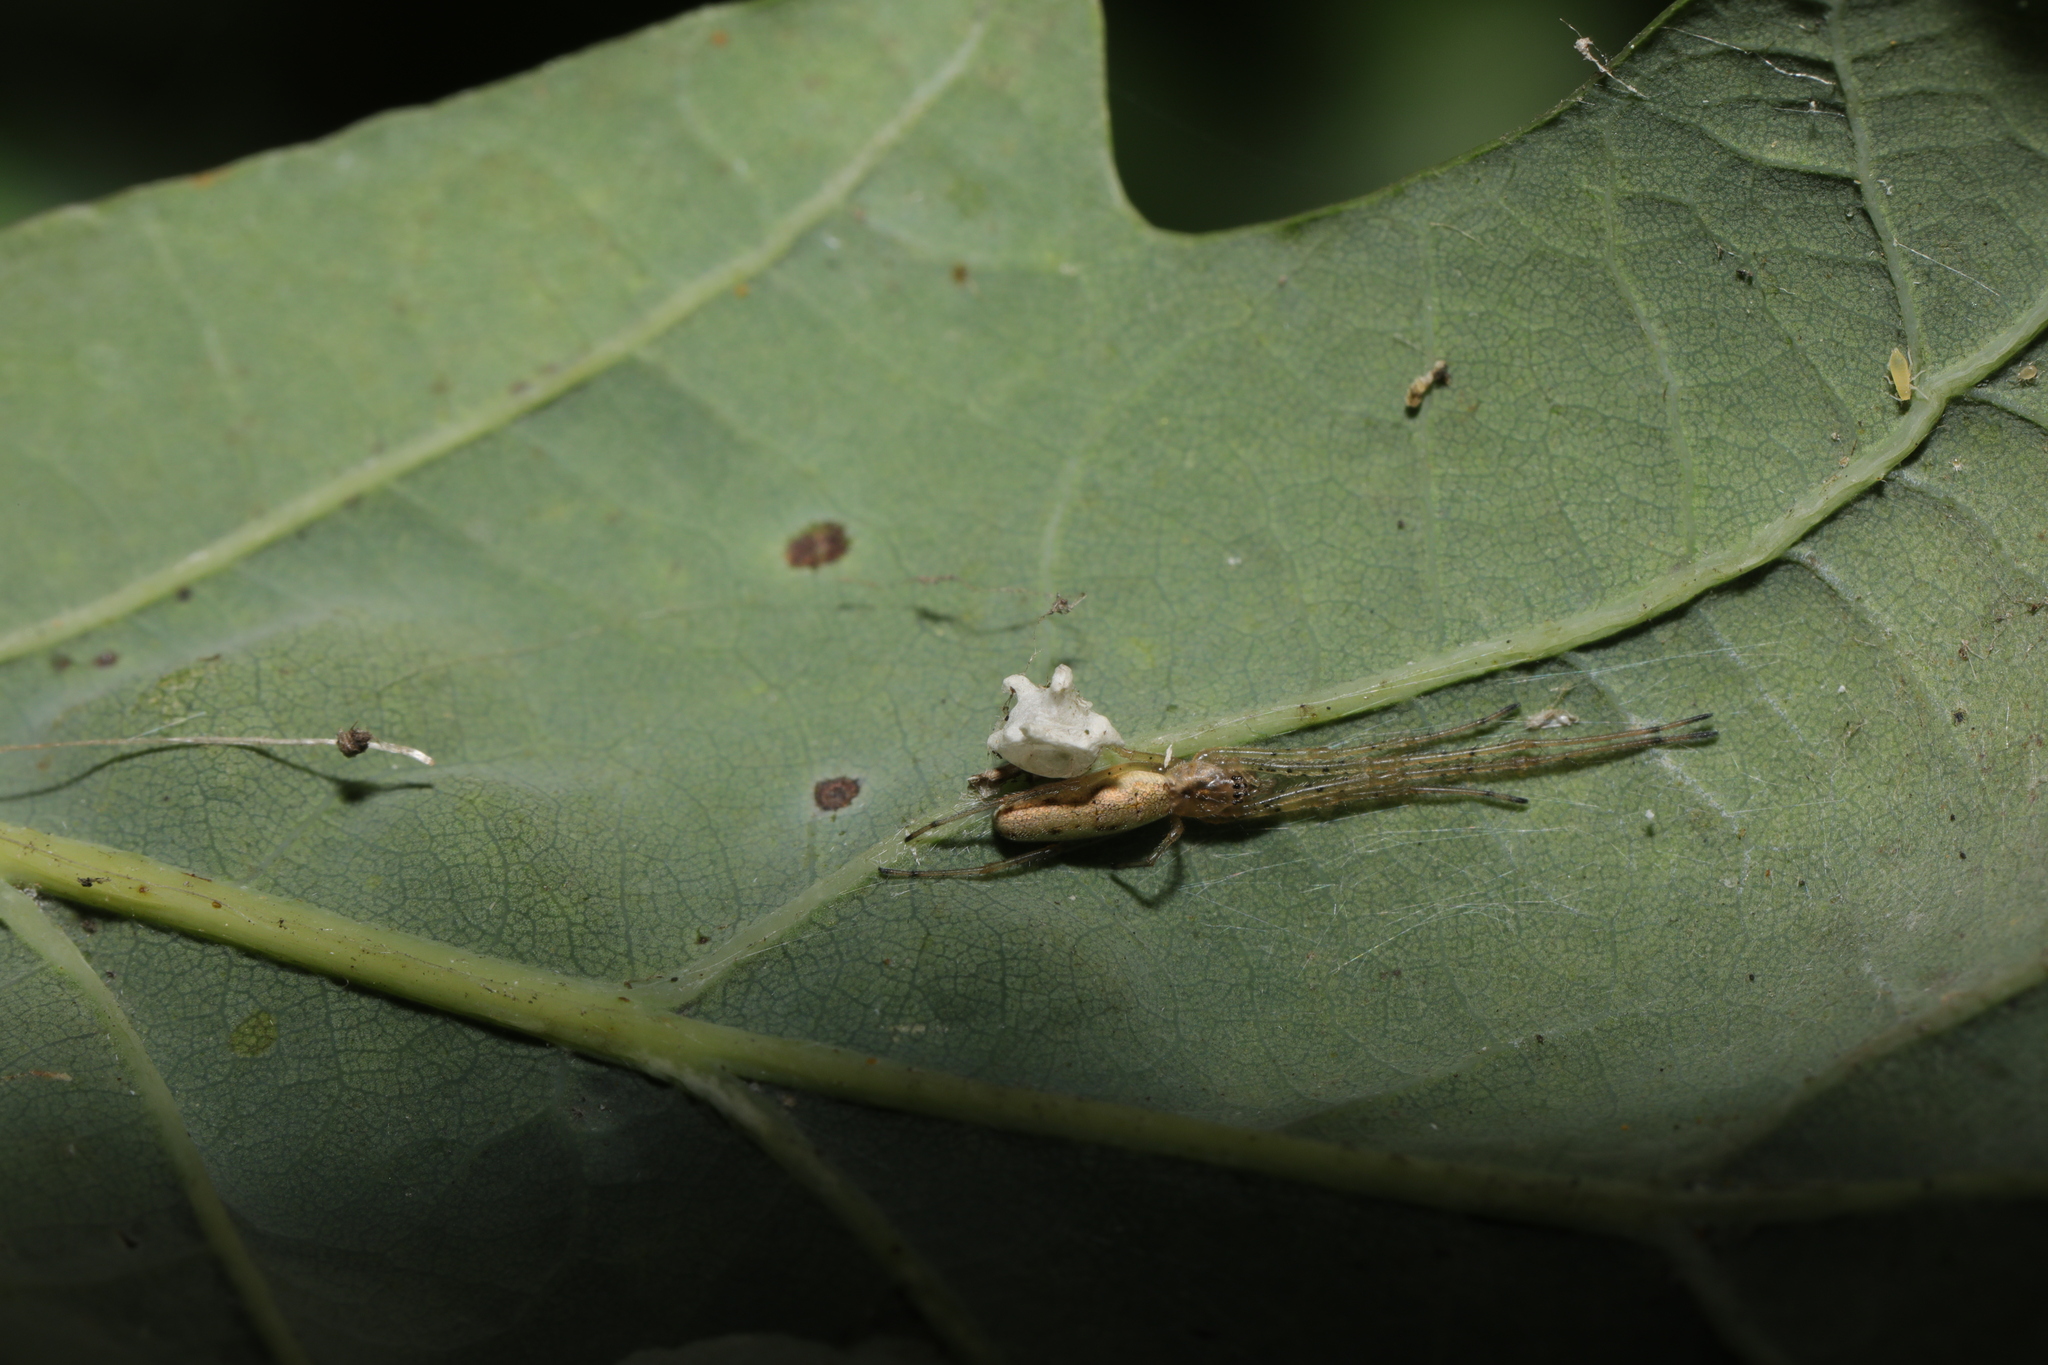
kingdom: Animalia
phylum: Arthropoda
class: Arachnida
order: Araneae
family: Tetragnathidae
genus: Tetragnatha
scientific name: Tetragnatha extensa
